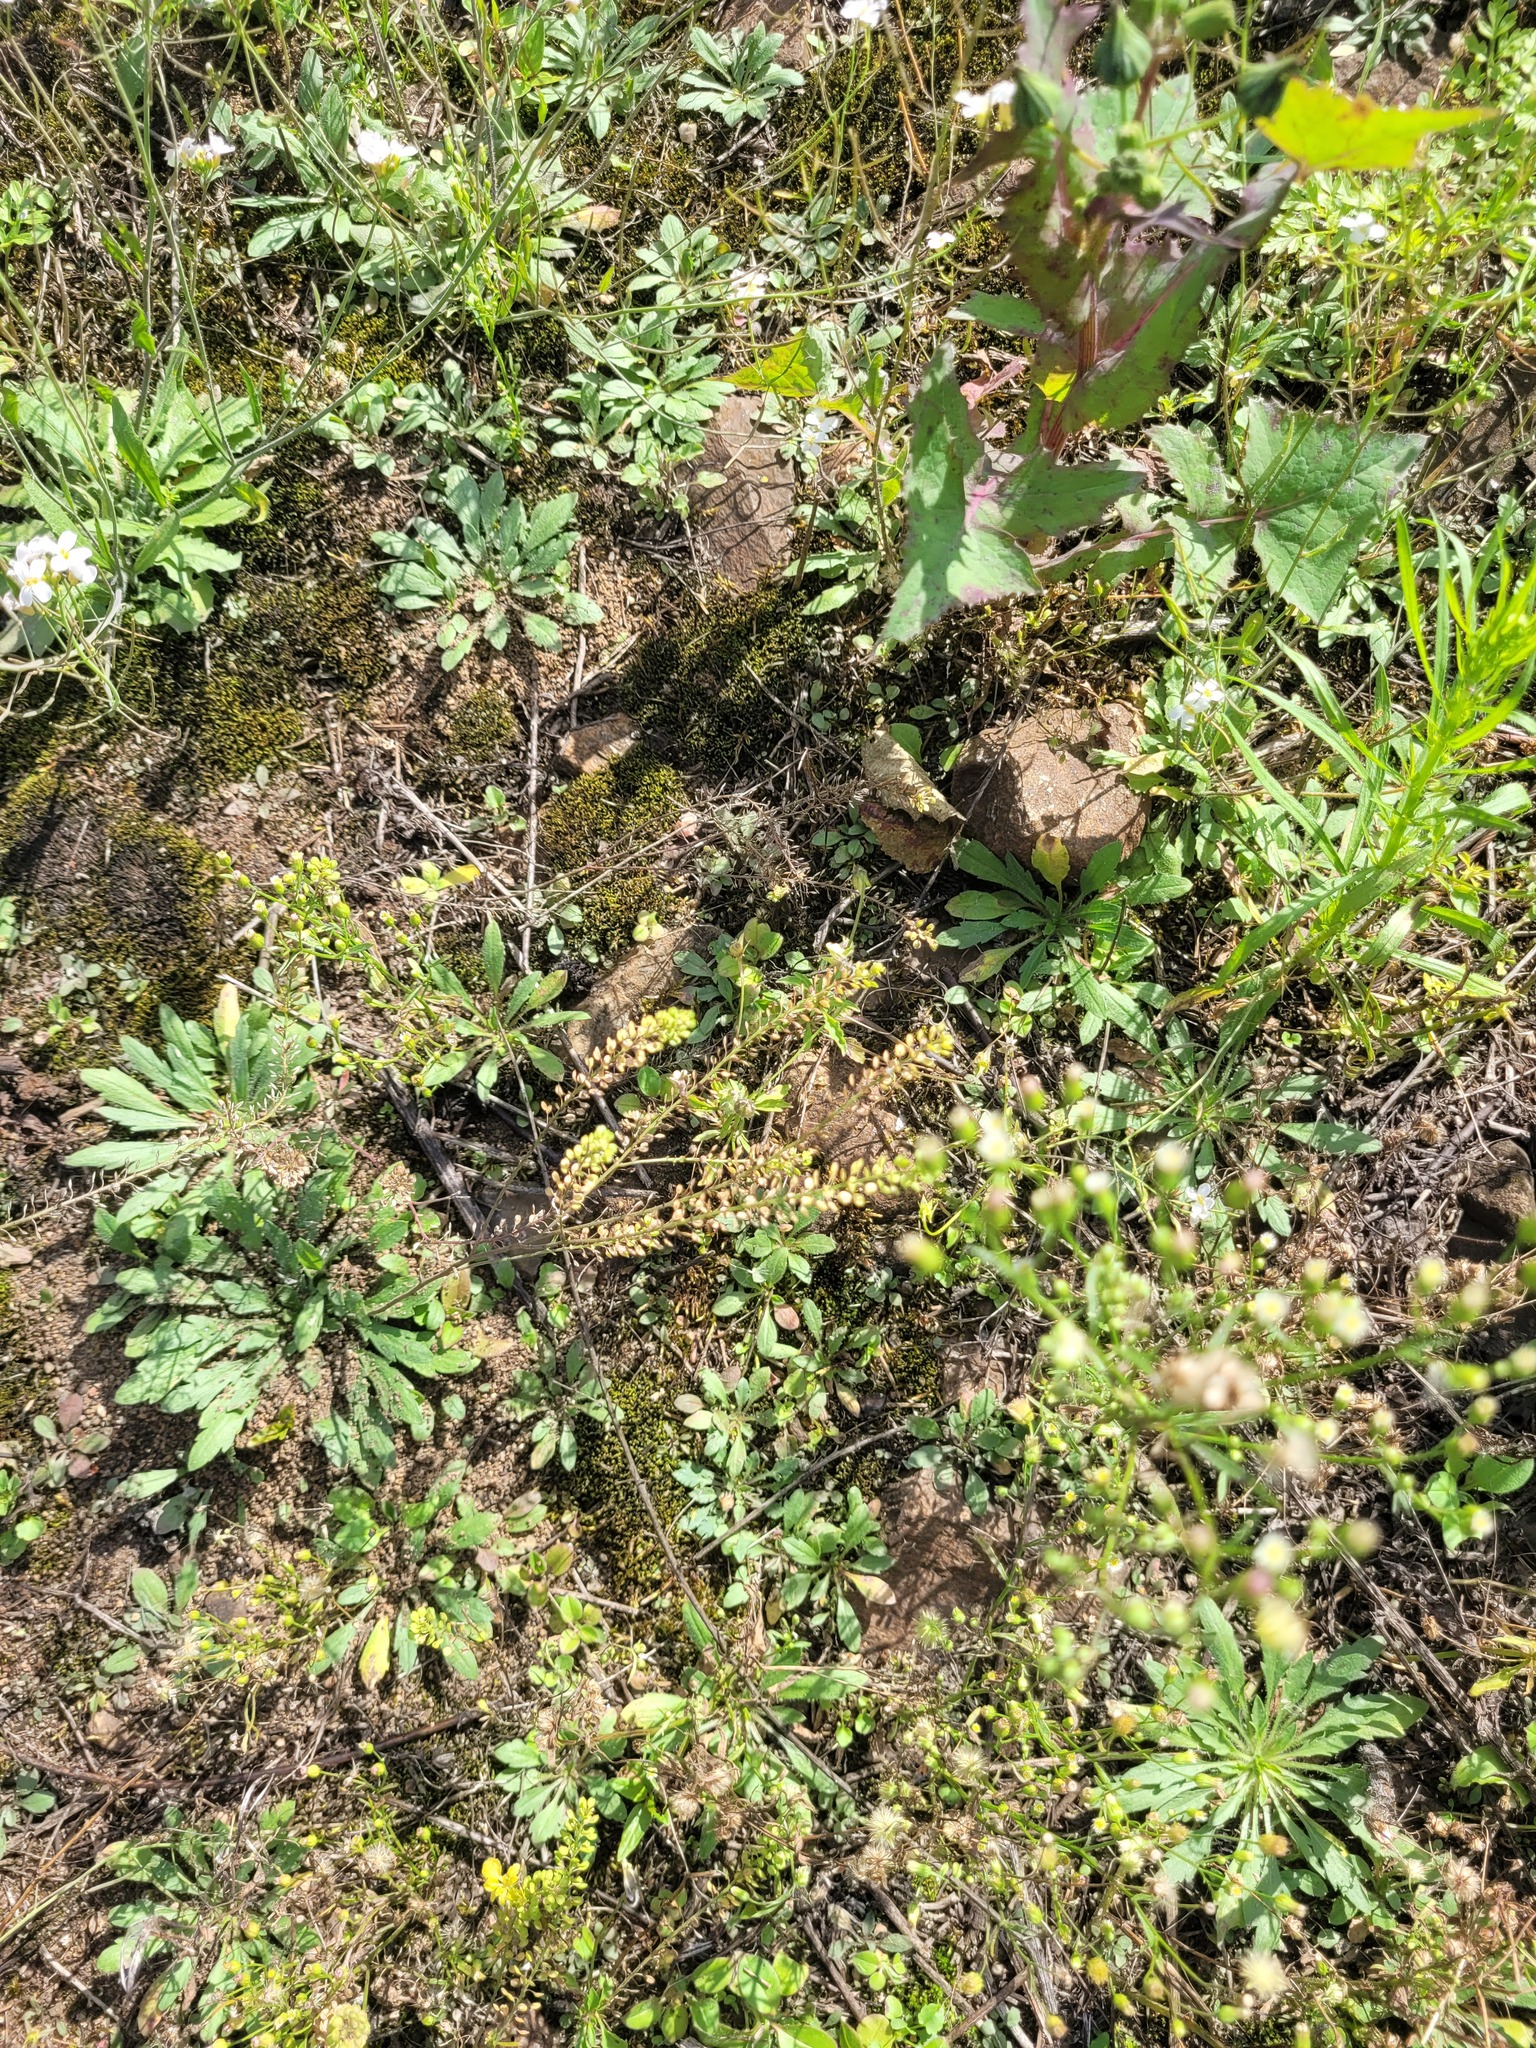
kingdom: Plantae
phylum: Tracheophyta
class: Magnoliopsida
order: Brassicales
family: Brassicaceae
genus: Lepidium
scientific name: Lepidium densiflorum
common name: Miner's pepperwort
